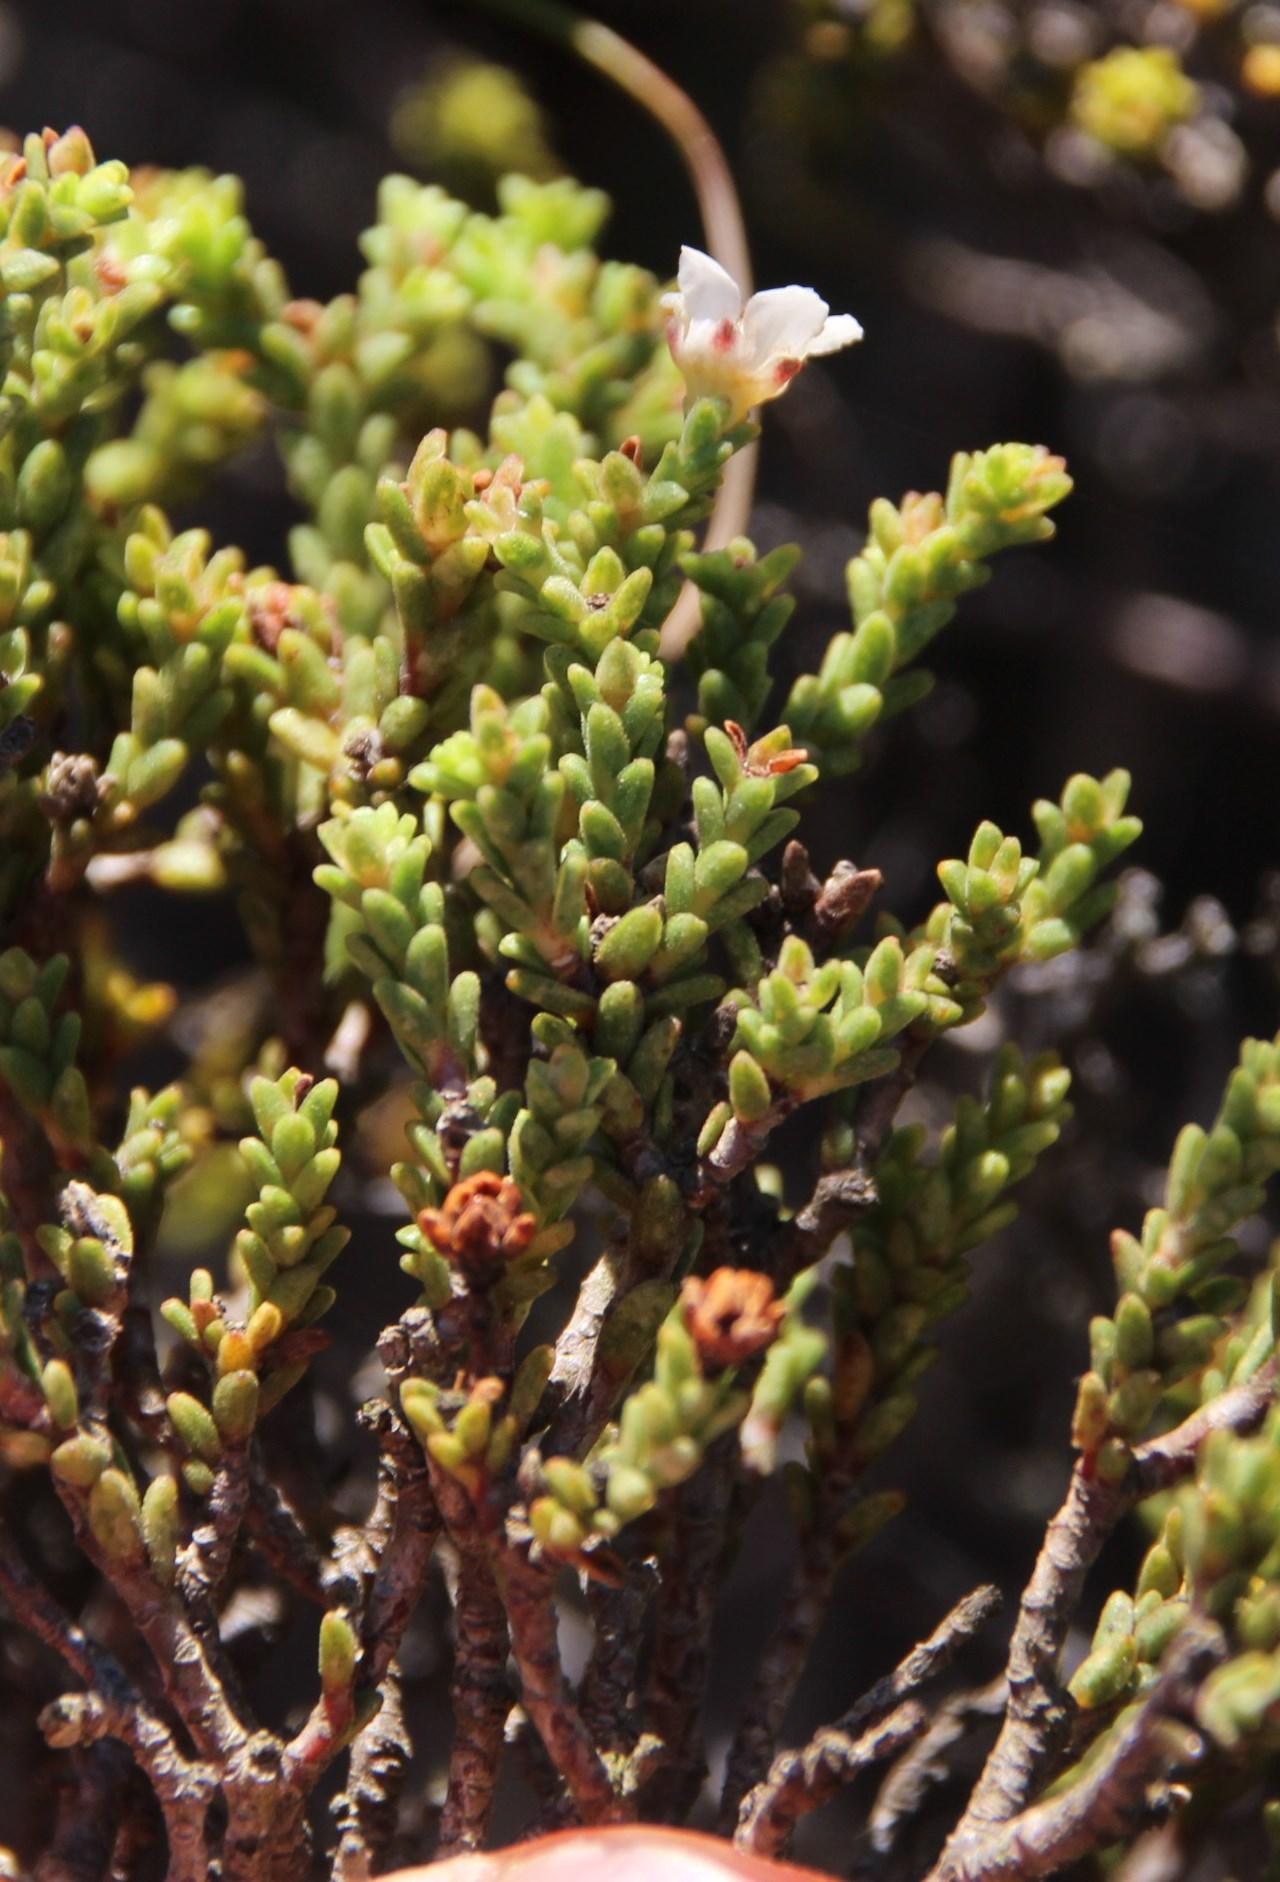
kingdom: Plantae
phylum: Tracheophyta
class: Magnoliopsida
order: Sapindales
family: Rutaceae
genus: Diosma
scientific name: Diosma passerinoides
